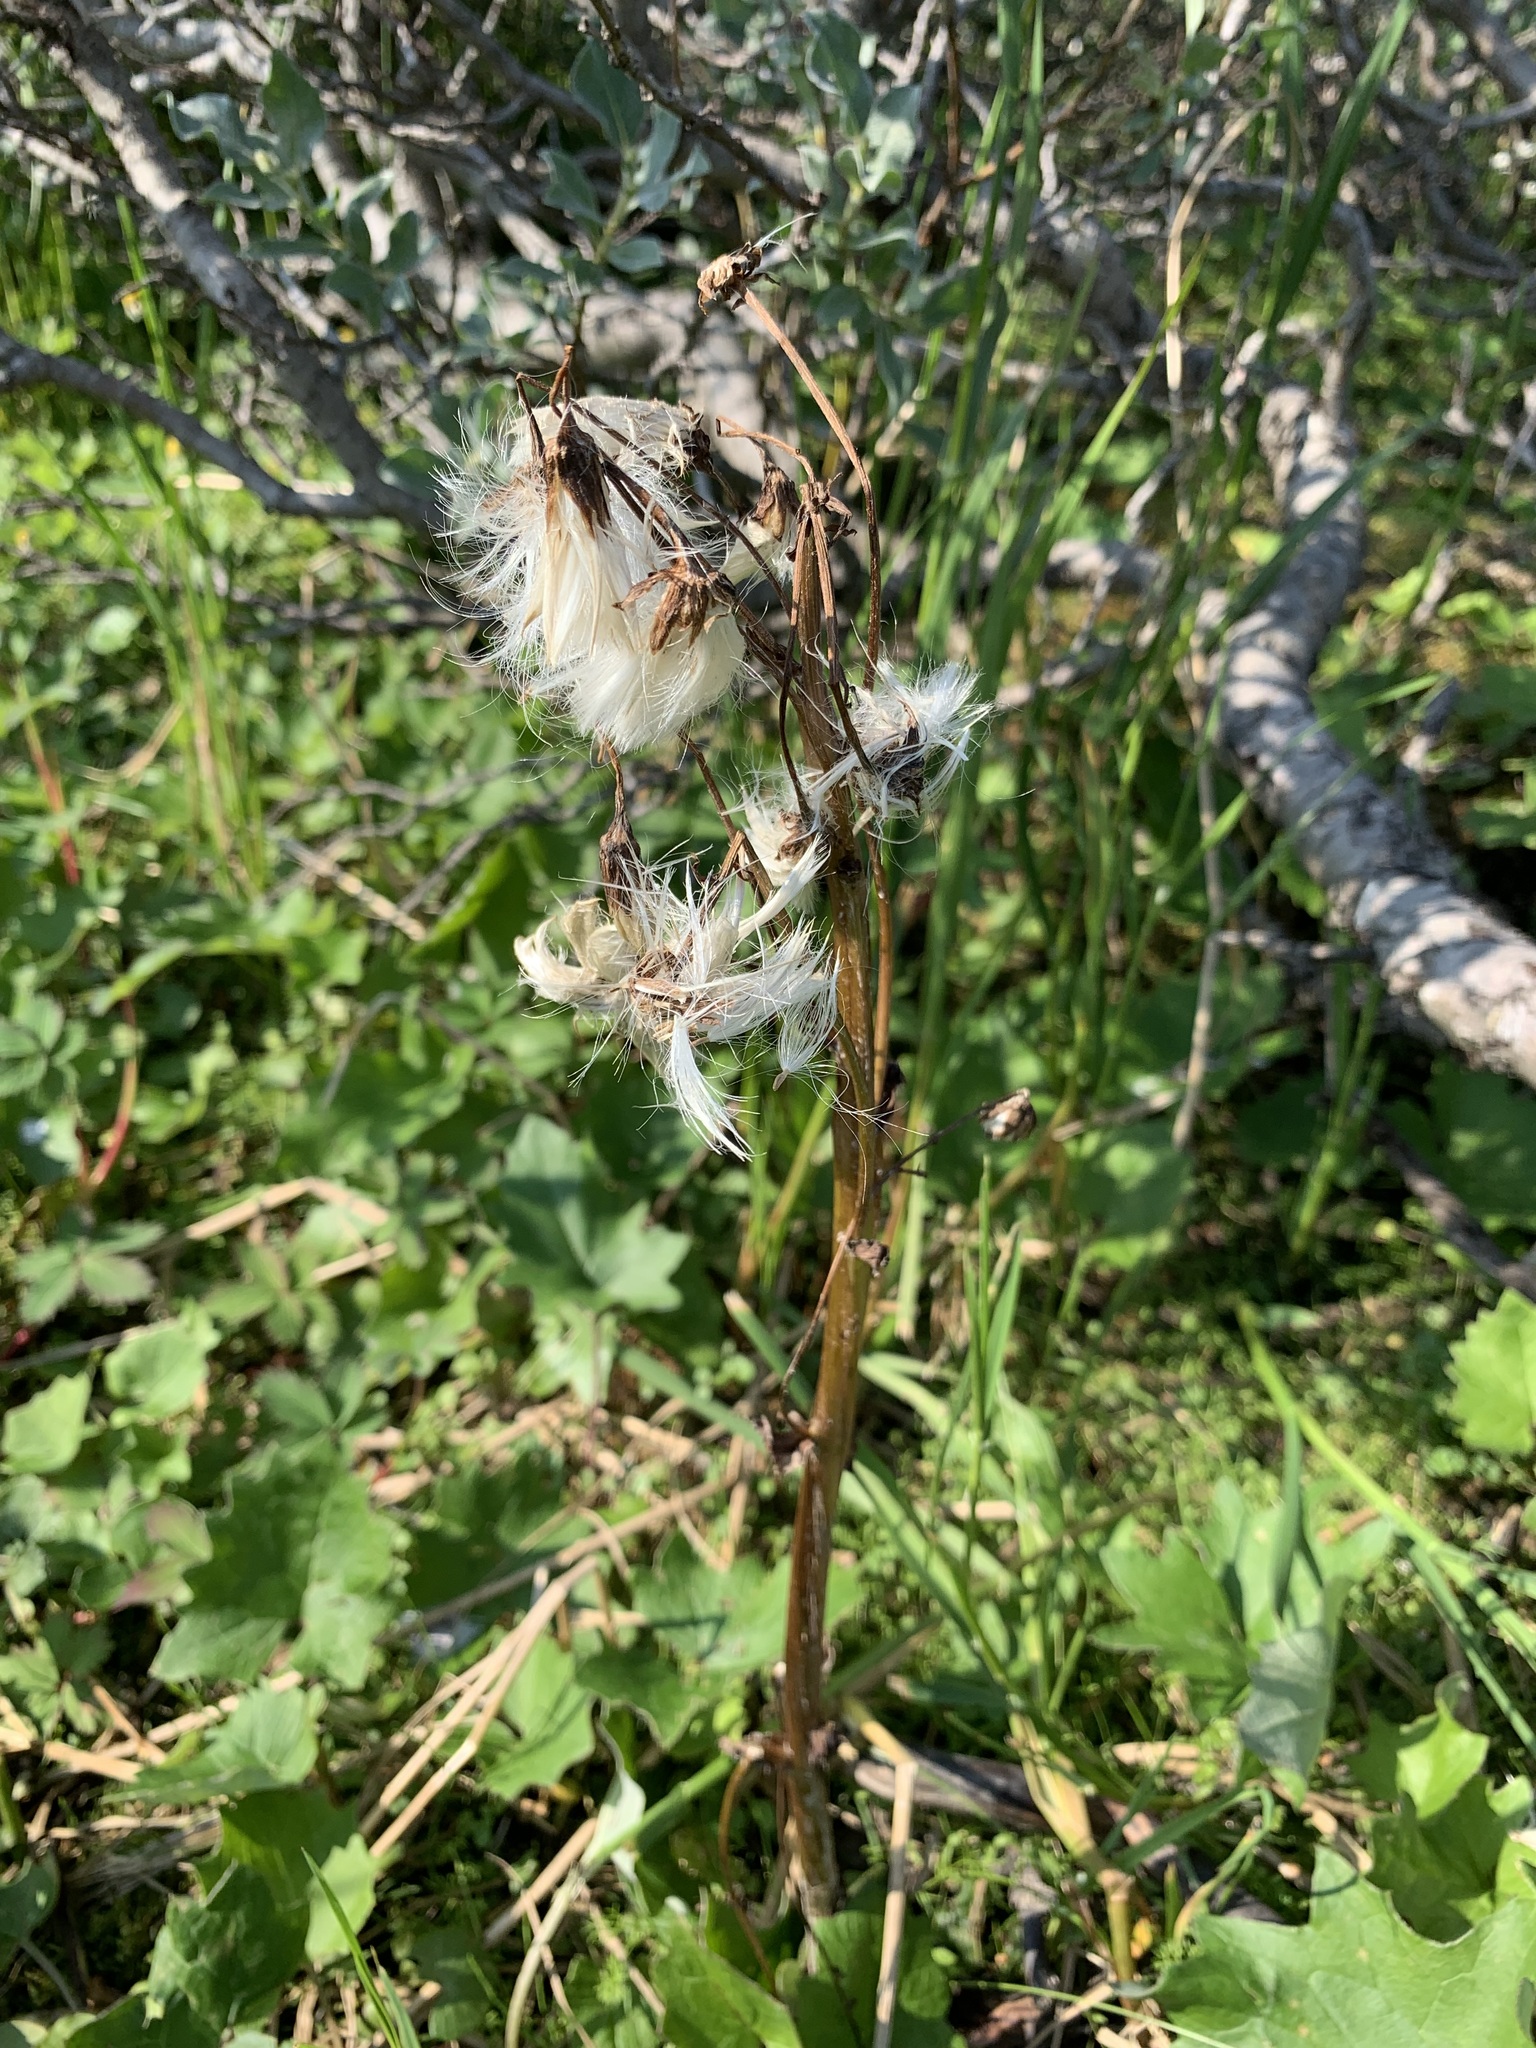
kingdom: Plantae
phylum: Tracheophyta
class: Magnoliopsida
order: Asterales
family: Asteraceae
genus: Petasites
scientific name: Petasites frigidus
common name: Arctic butterbur
